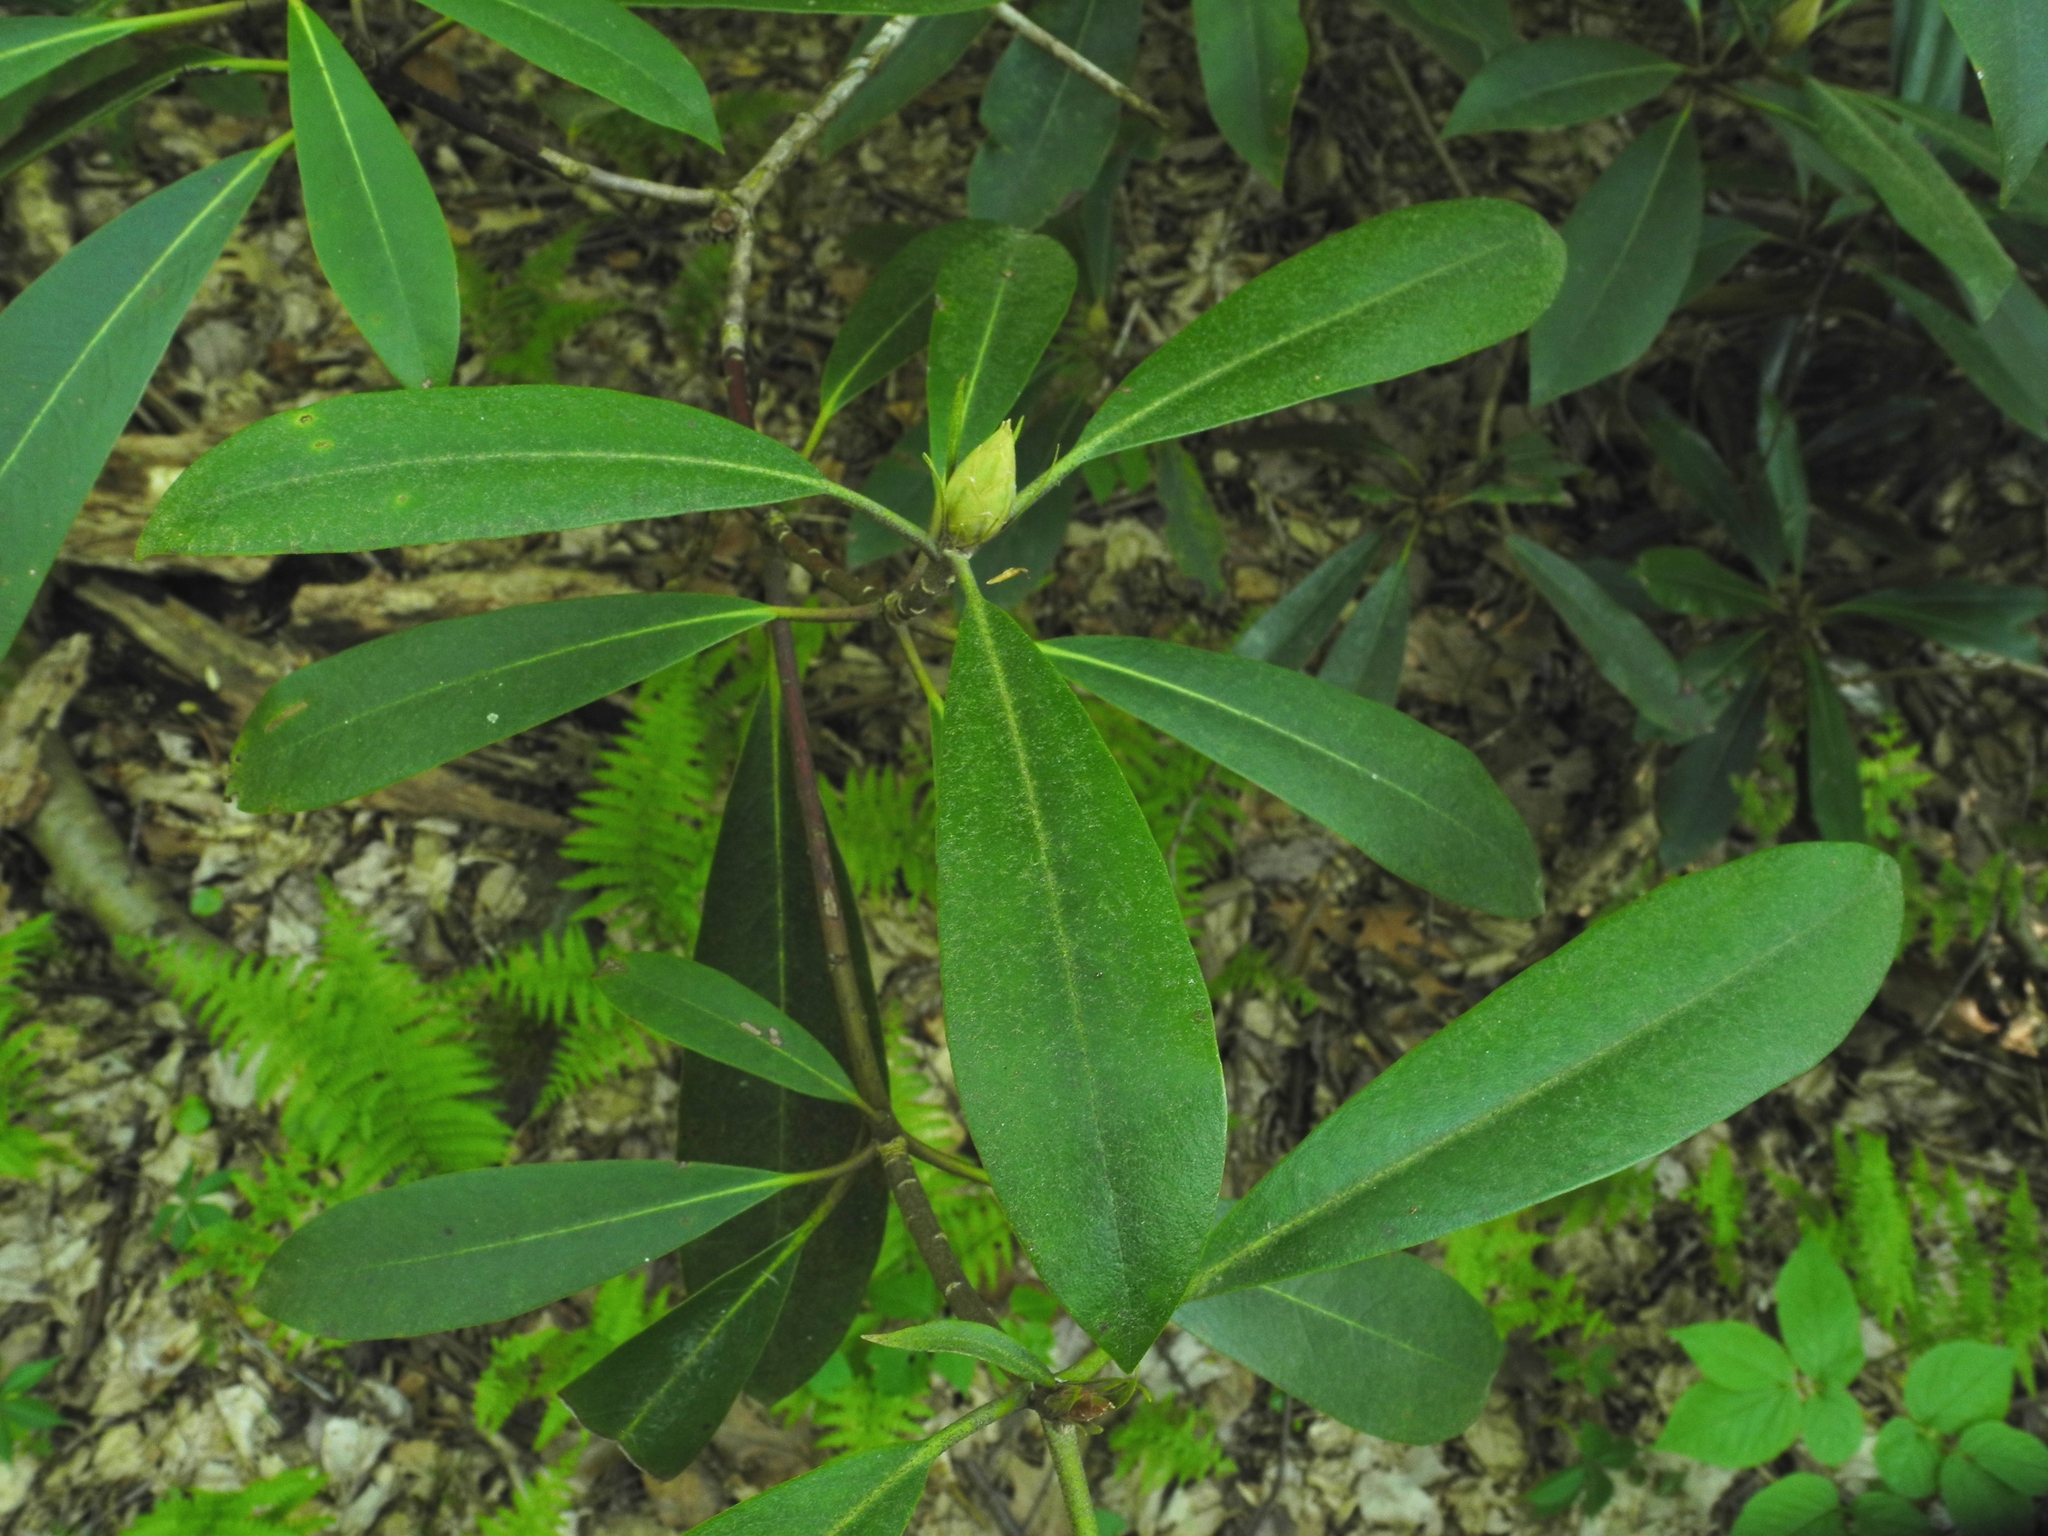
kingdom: Plantae
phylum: Tracheophyta
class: Magnoliopsida
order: Ericales
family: Ericaceae
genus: Rhododendron
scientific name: Rhododendron maximum
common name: Great rhododendron
